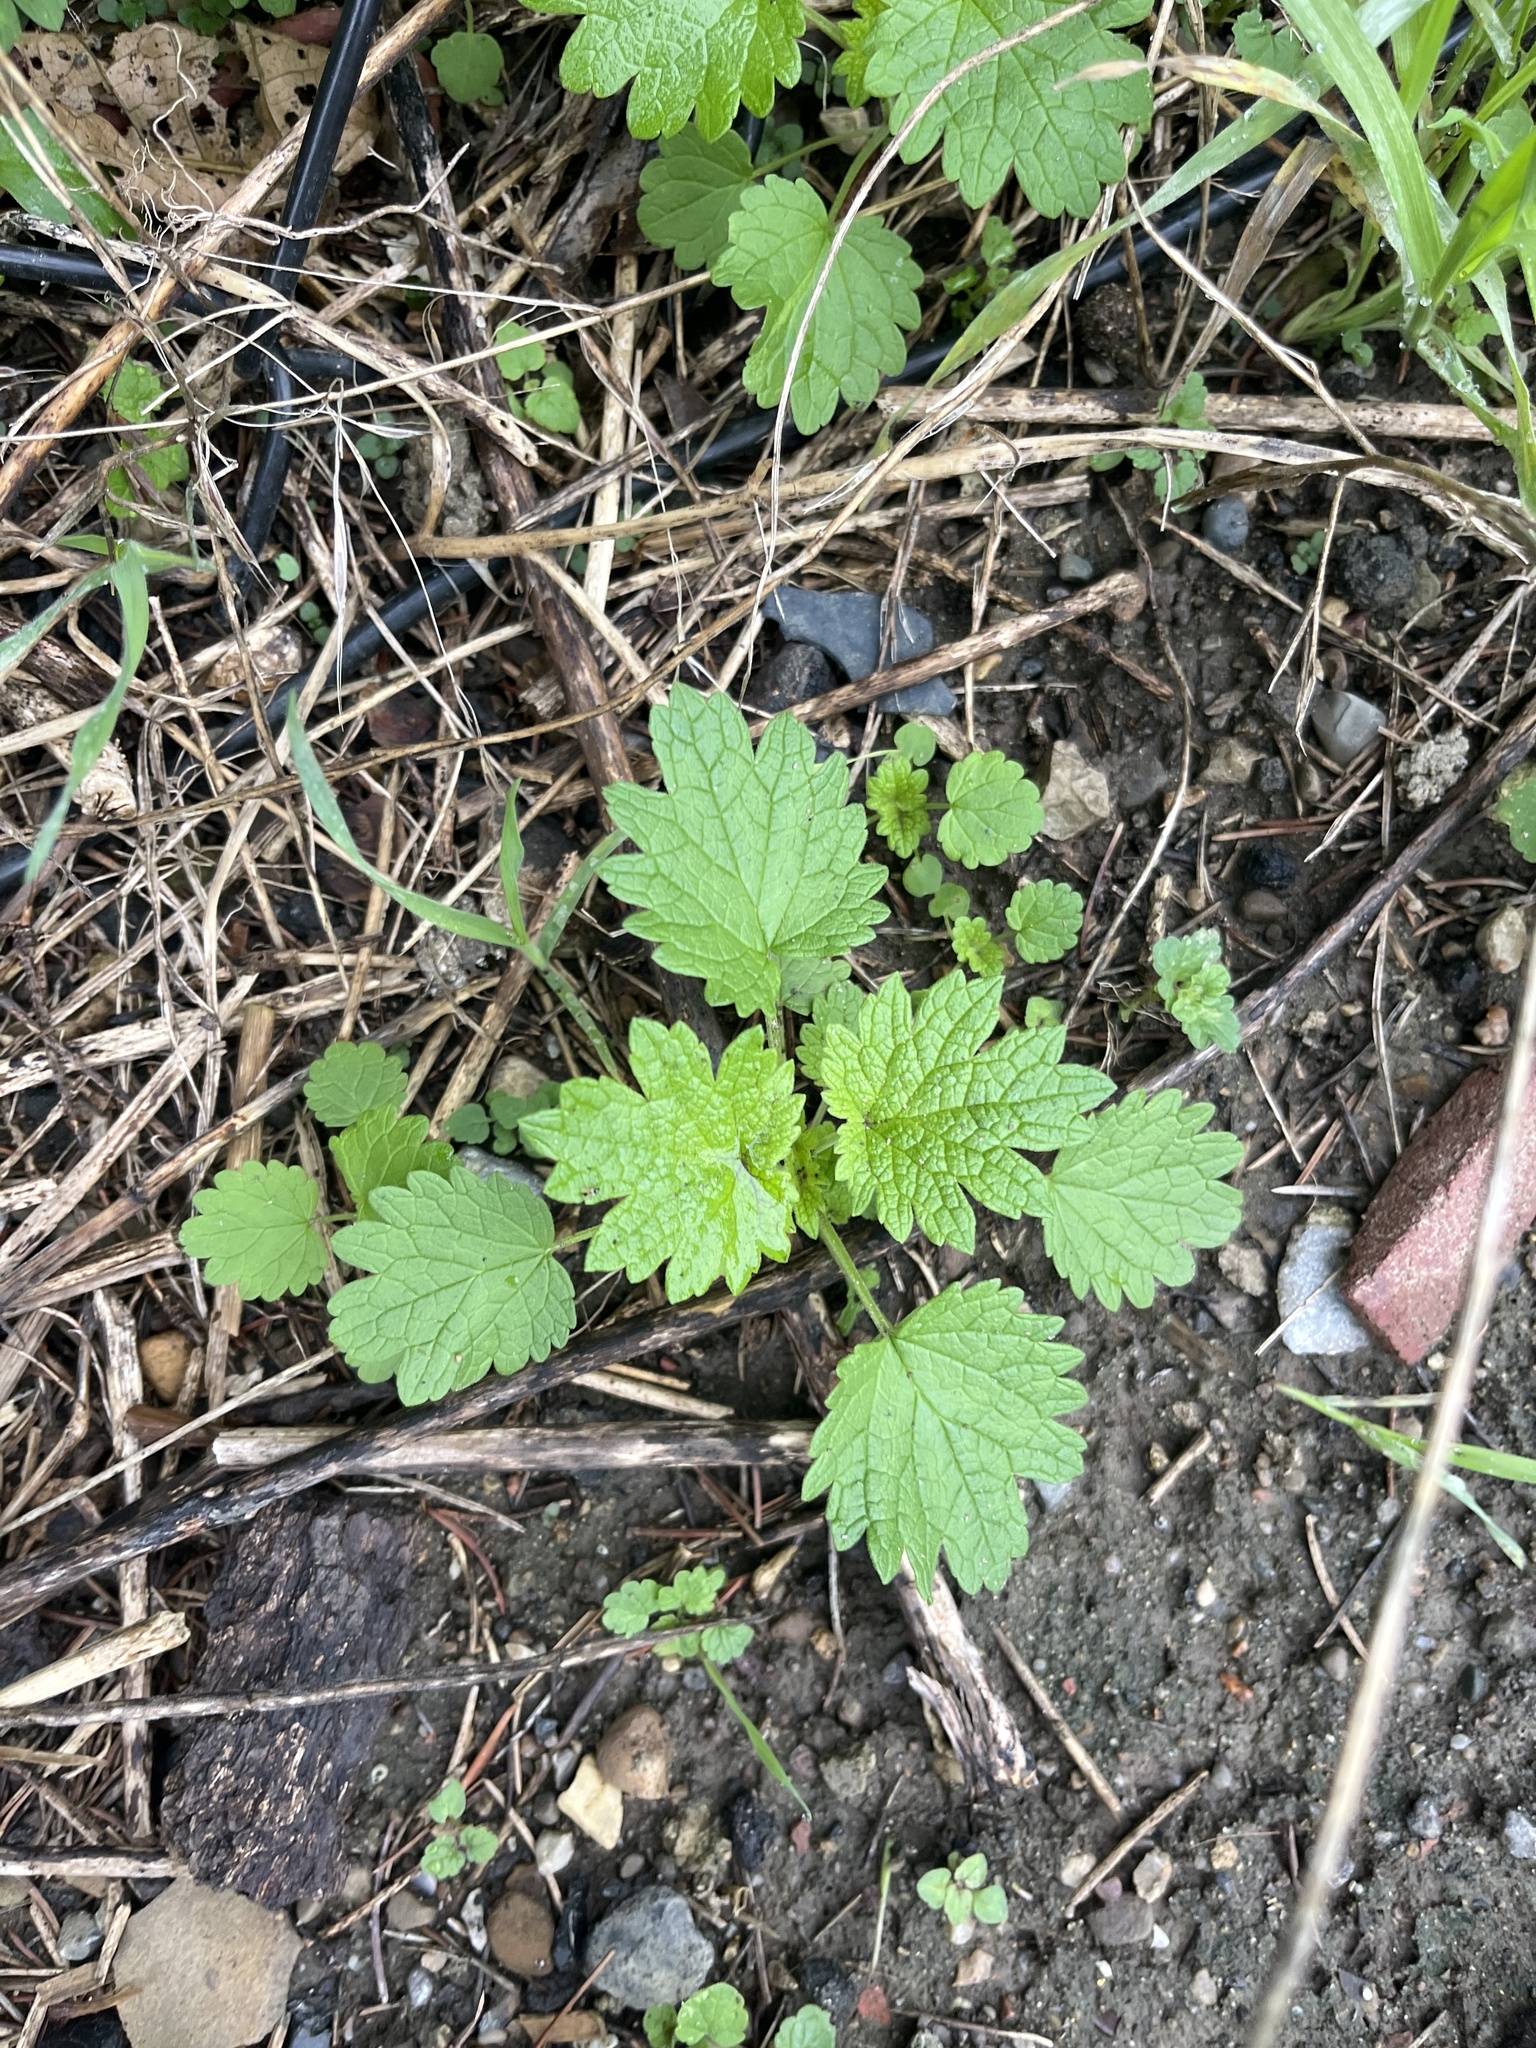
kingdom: Plantae
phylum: Tracheophyta
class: Magnoliopsida
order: Lamiales
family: Lamiaceae
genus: Leonurus
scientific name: Leonurus cardiaca
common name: Motherwort
